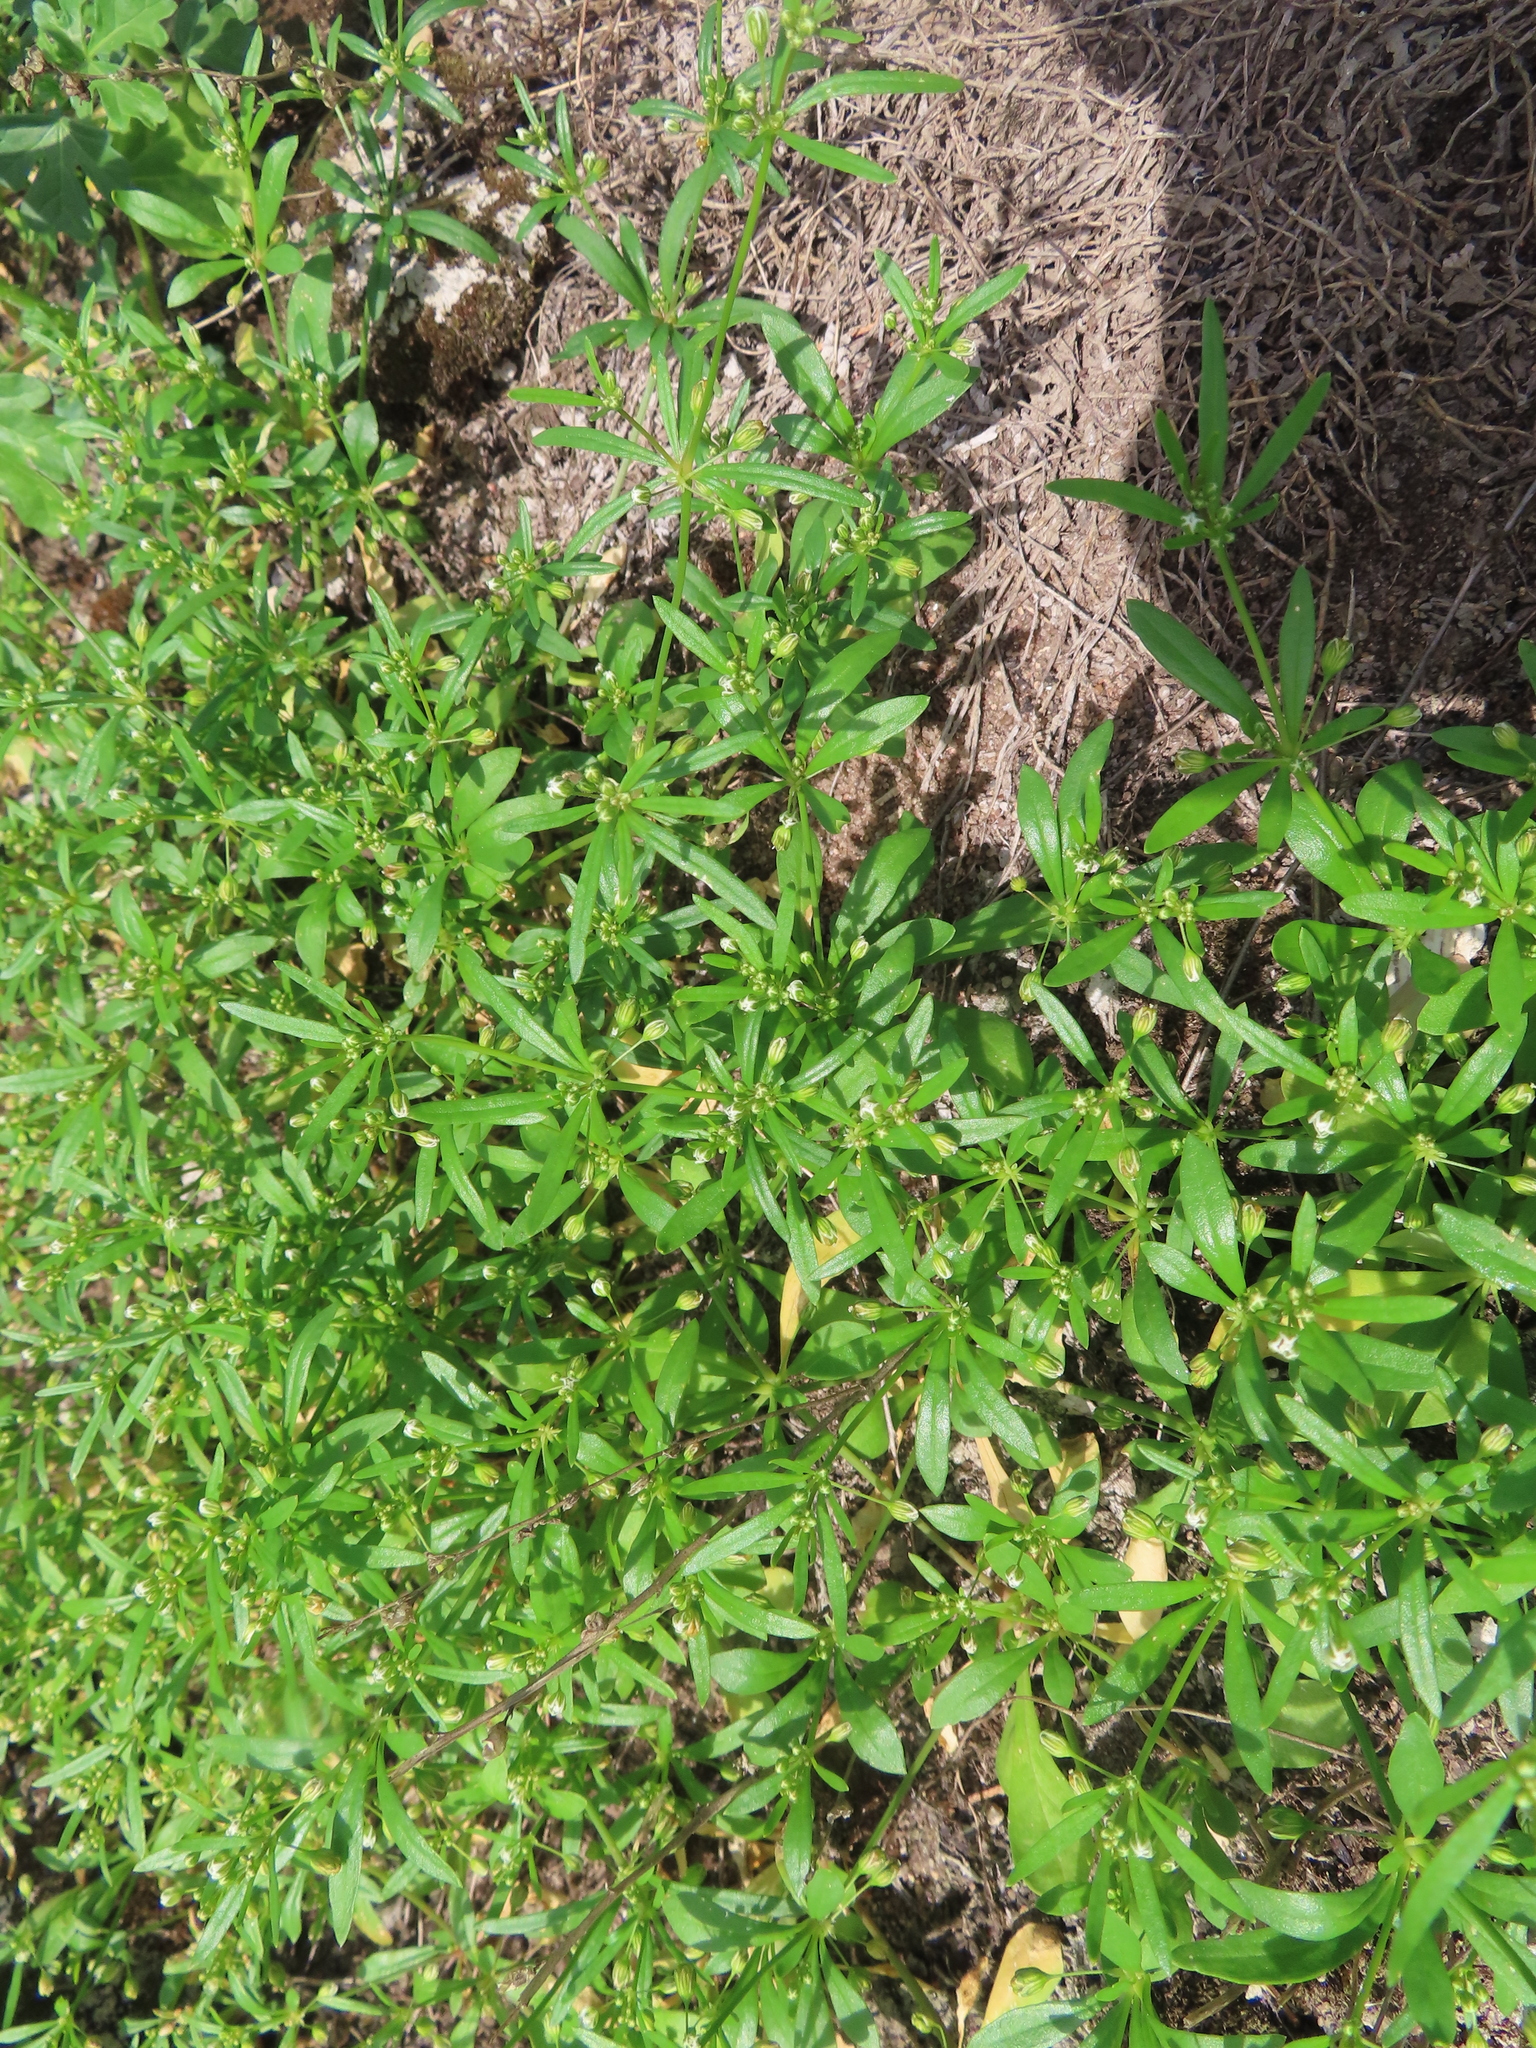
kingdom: Plantae
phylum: Tracheophyta
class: Magnoliopsida
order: Caryophyllales
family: Molluginaceae
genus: Mollugo
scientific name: Mollugo verticillata
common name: Green carpetweed
